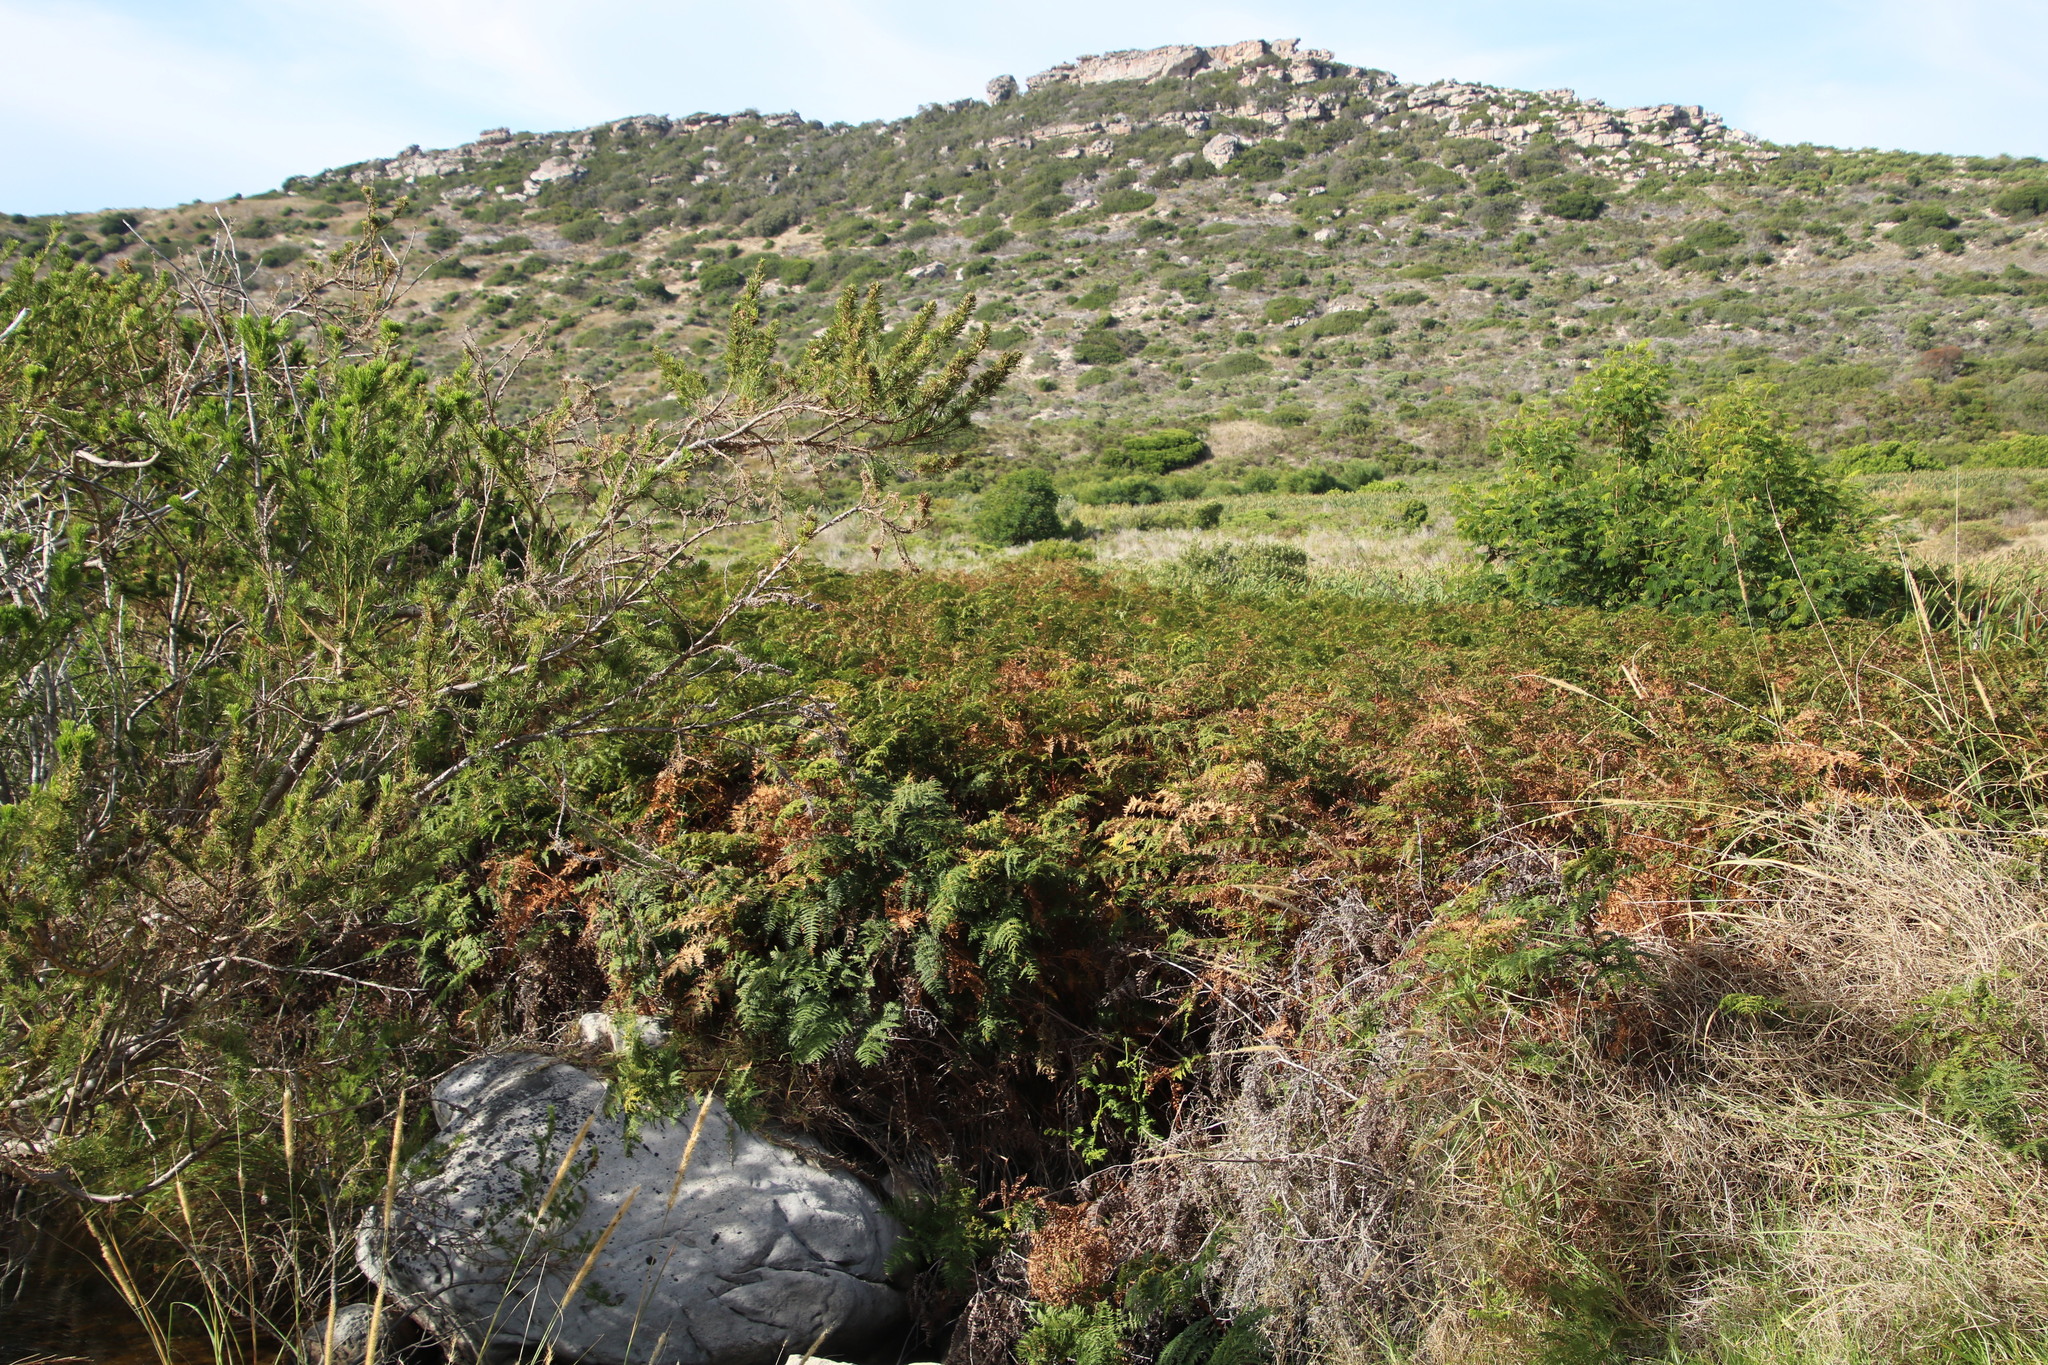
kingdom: Plantae
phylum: Tracheophyta
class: Polypodiopsida
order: Polypodiales
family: Dennstaedtiaceae
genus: Pteridium
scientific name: Pteridium aquilinum
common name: Bracken
